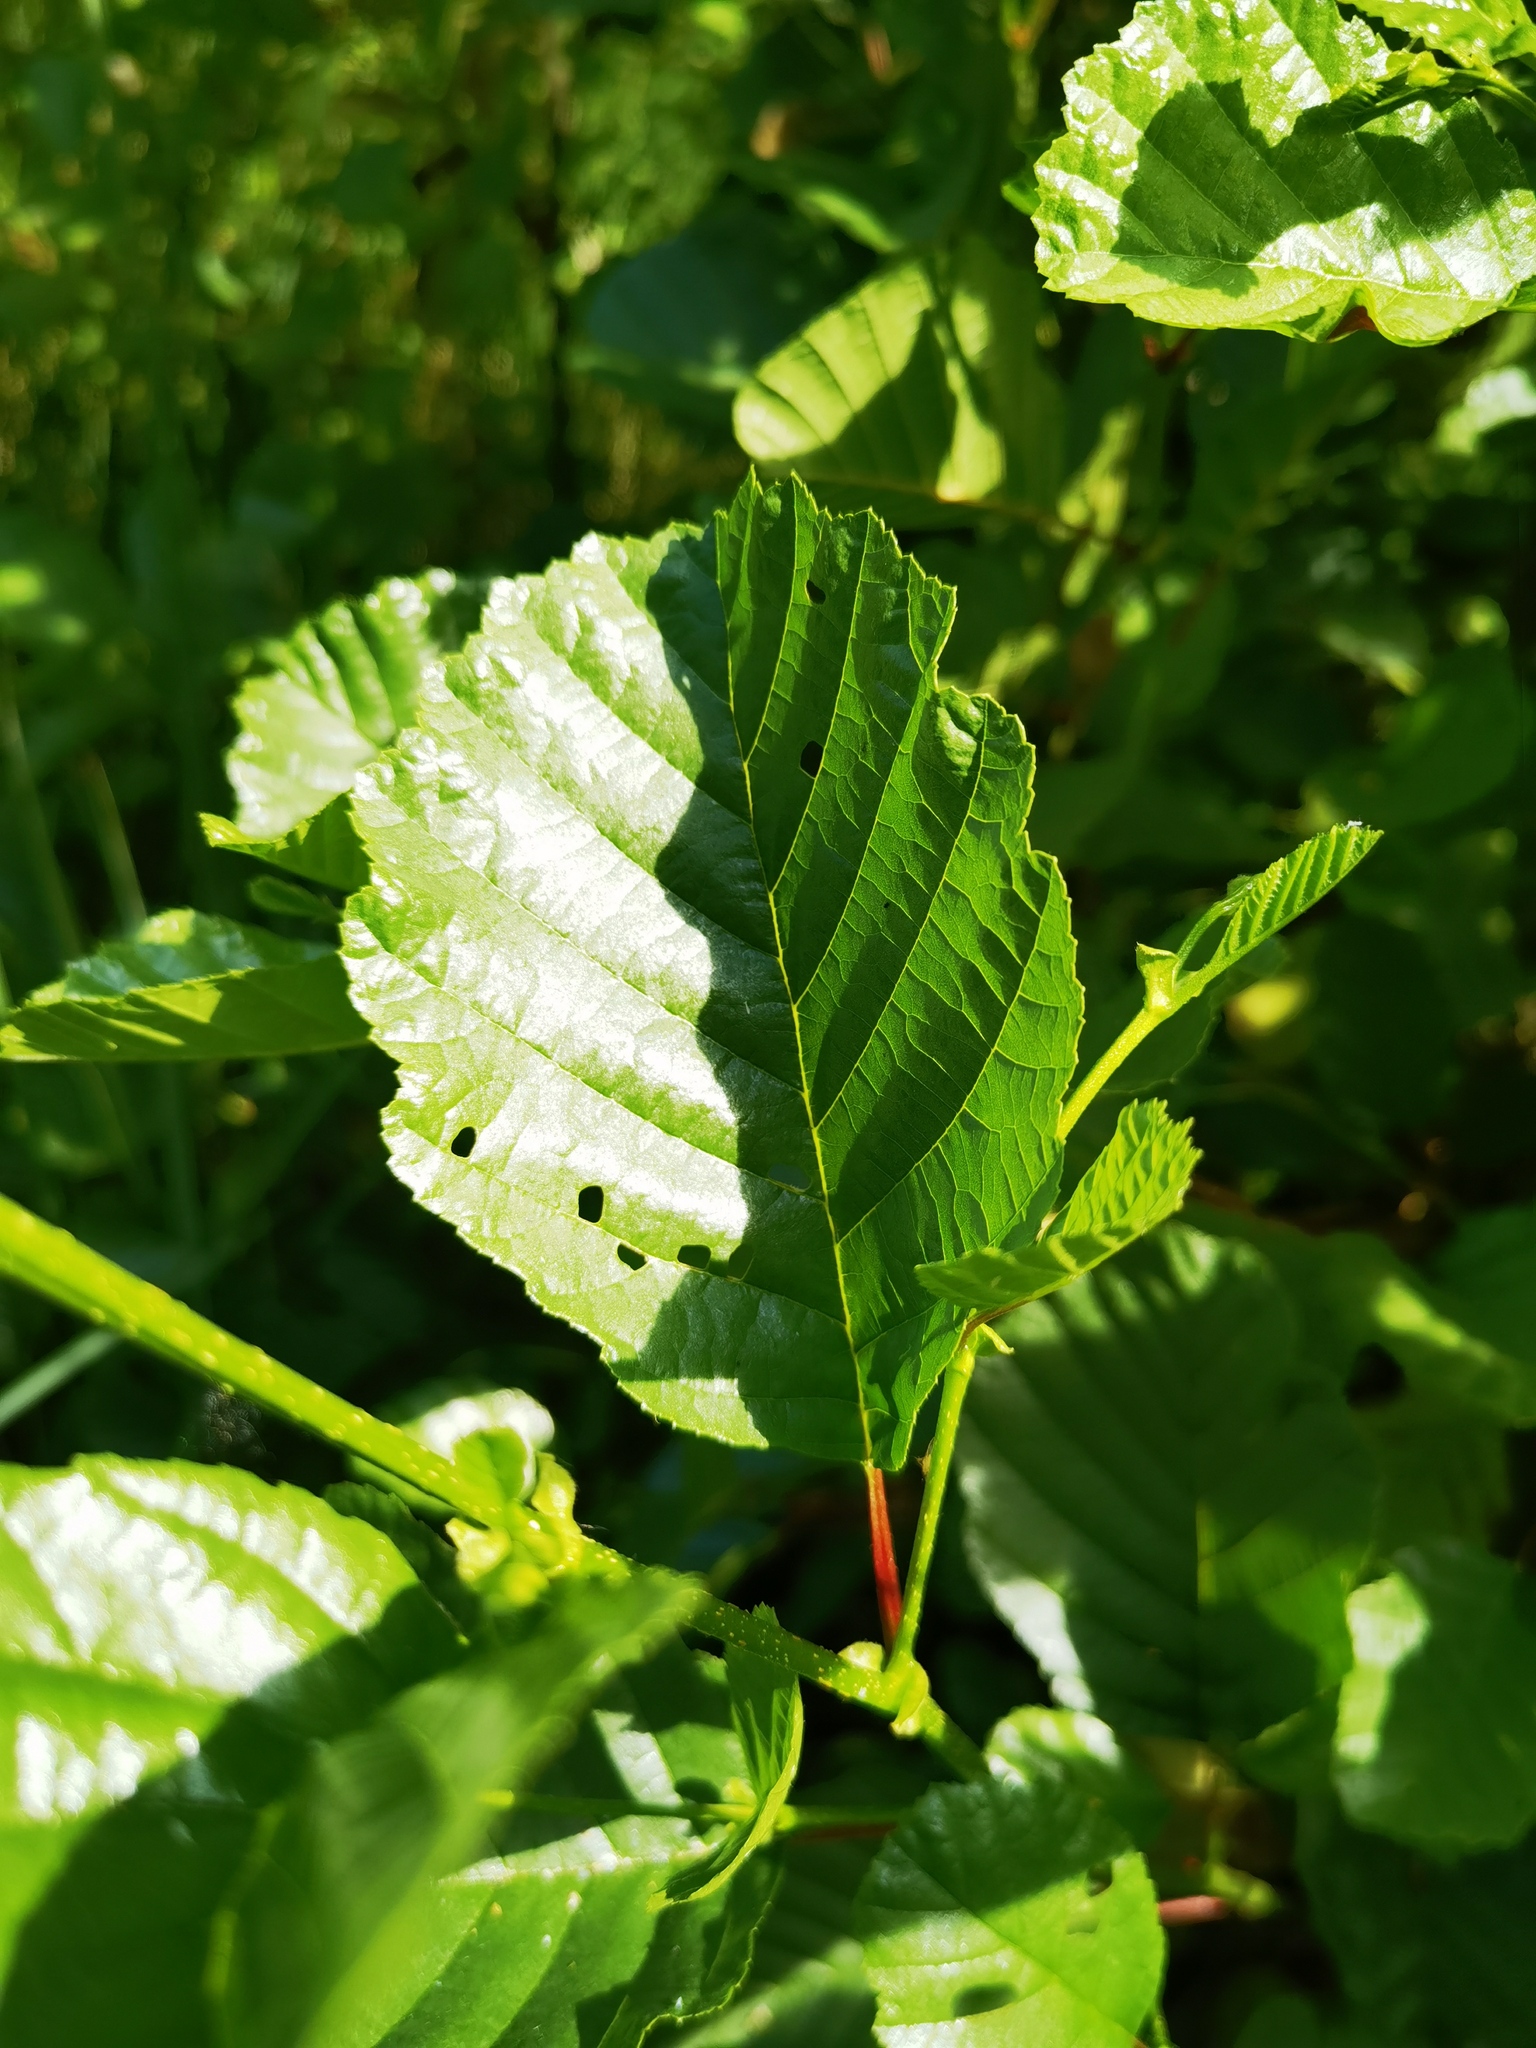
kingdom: Plantae
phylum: Tracheophyta
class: Magnoliopsida
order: Fagales
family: Betulaceae
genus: Alnus
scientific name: Alnus glutinosa
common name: Black alder
